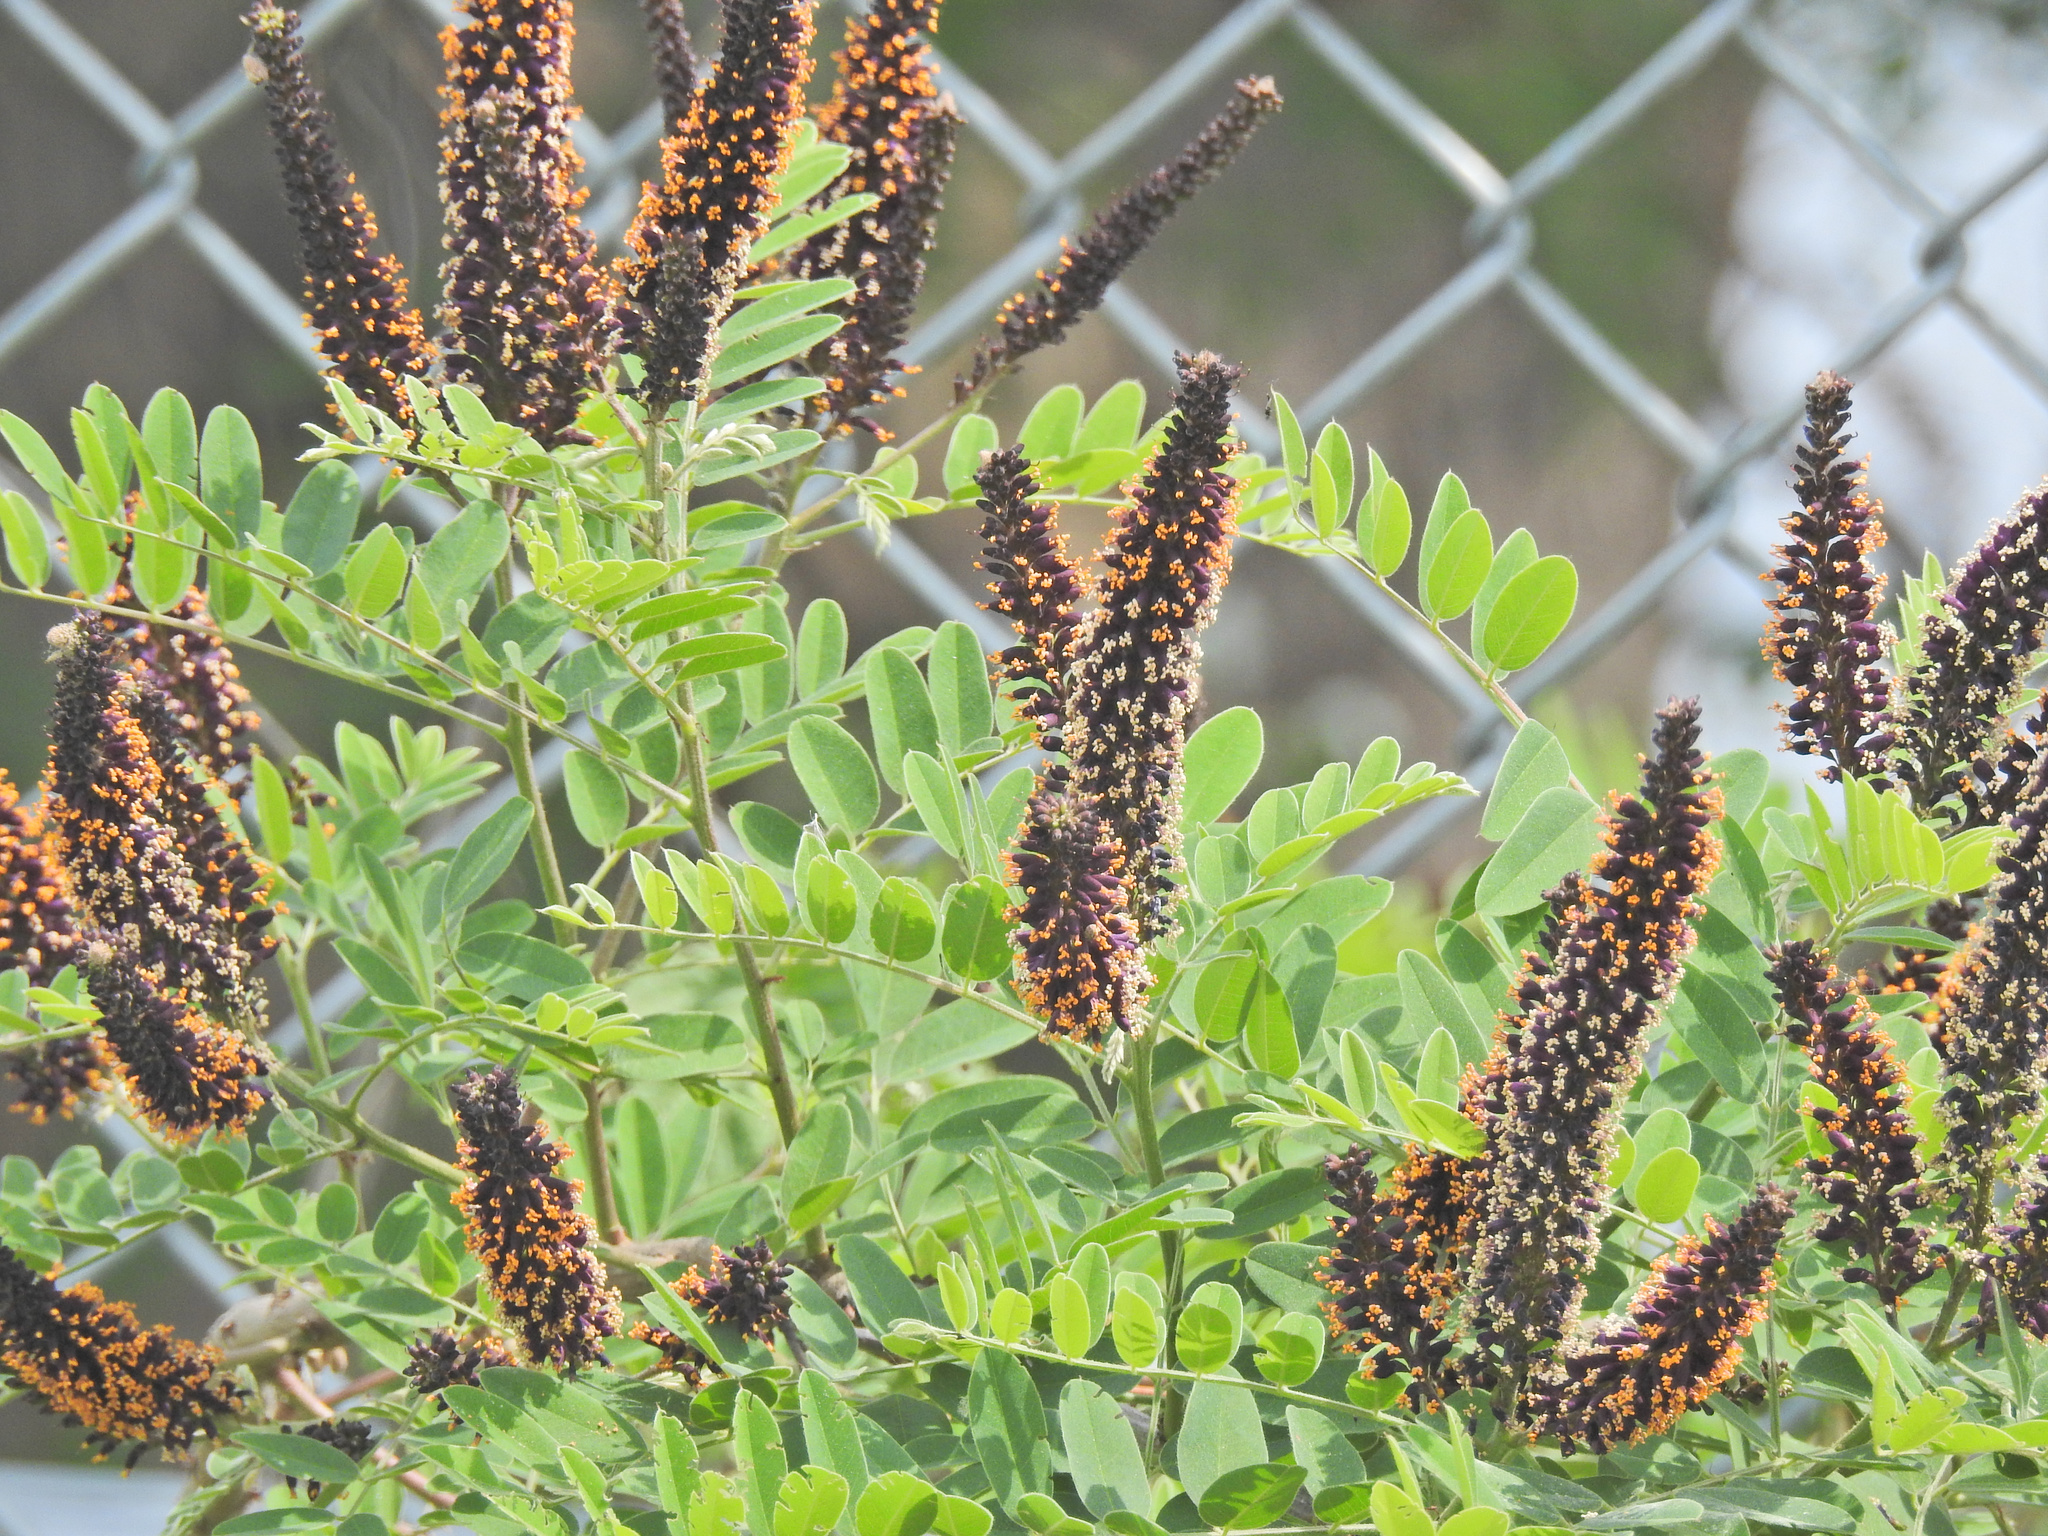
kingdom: Plantae
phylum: Tracheophyta
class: Magnoliopsida
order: Fabales
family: Fabaceae
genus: Amorpha
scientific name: Amorpha fruticosa
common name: False indigo
